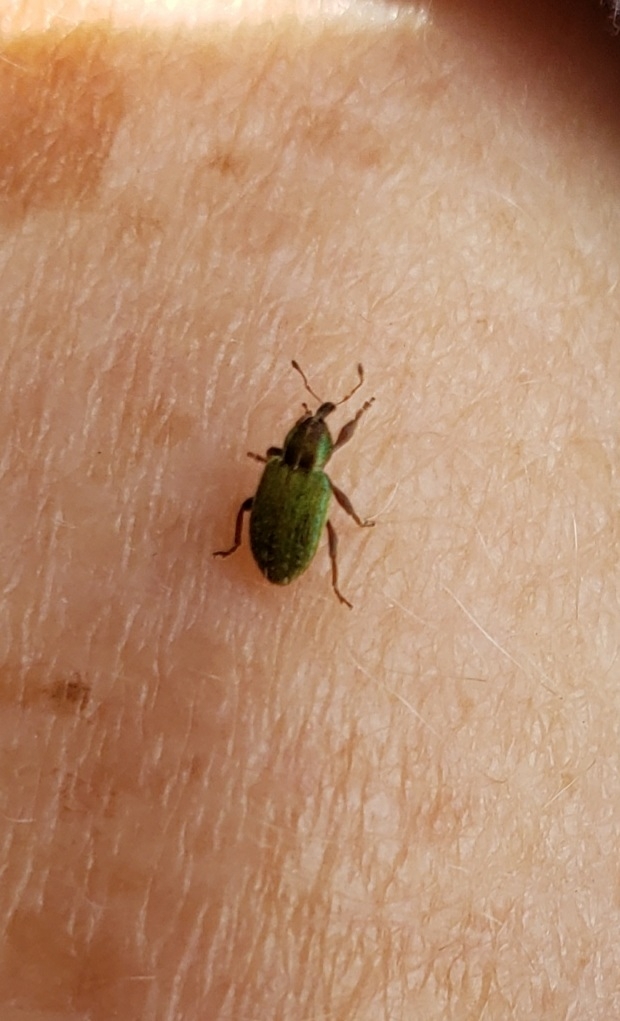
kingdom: Animalia
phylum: Arthropoda
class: Insecta
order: Coleoptera
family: Curculionidae
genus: Hypera
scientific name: Hypera nigrirostris
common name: Black-beaked green weevil
